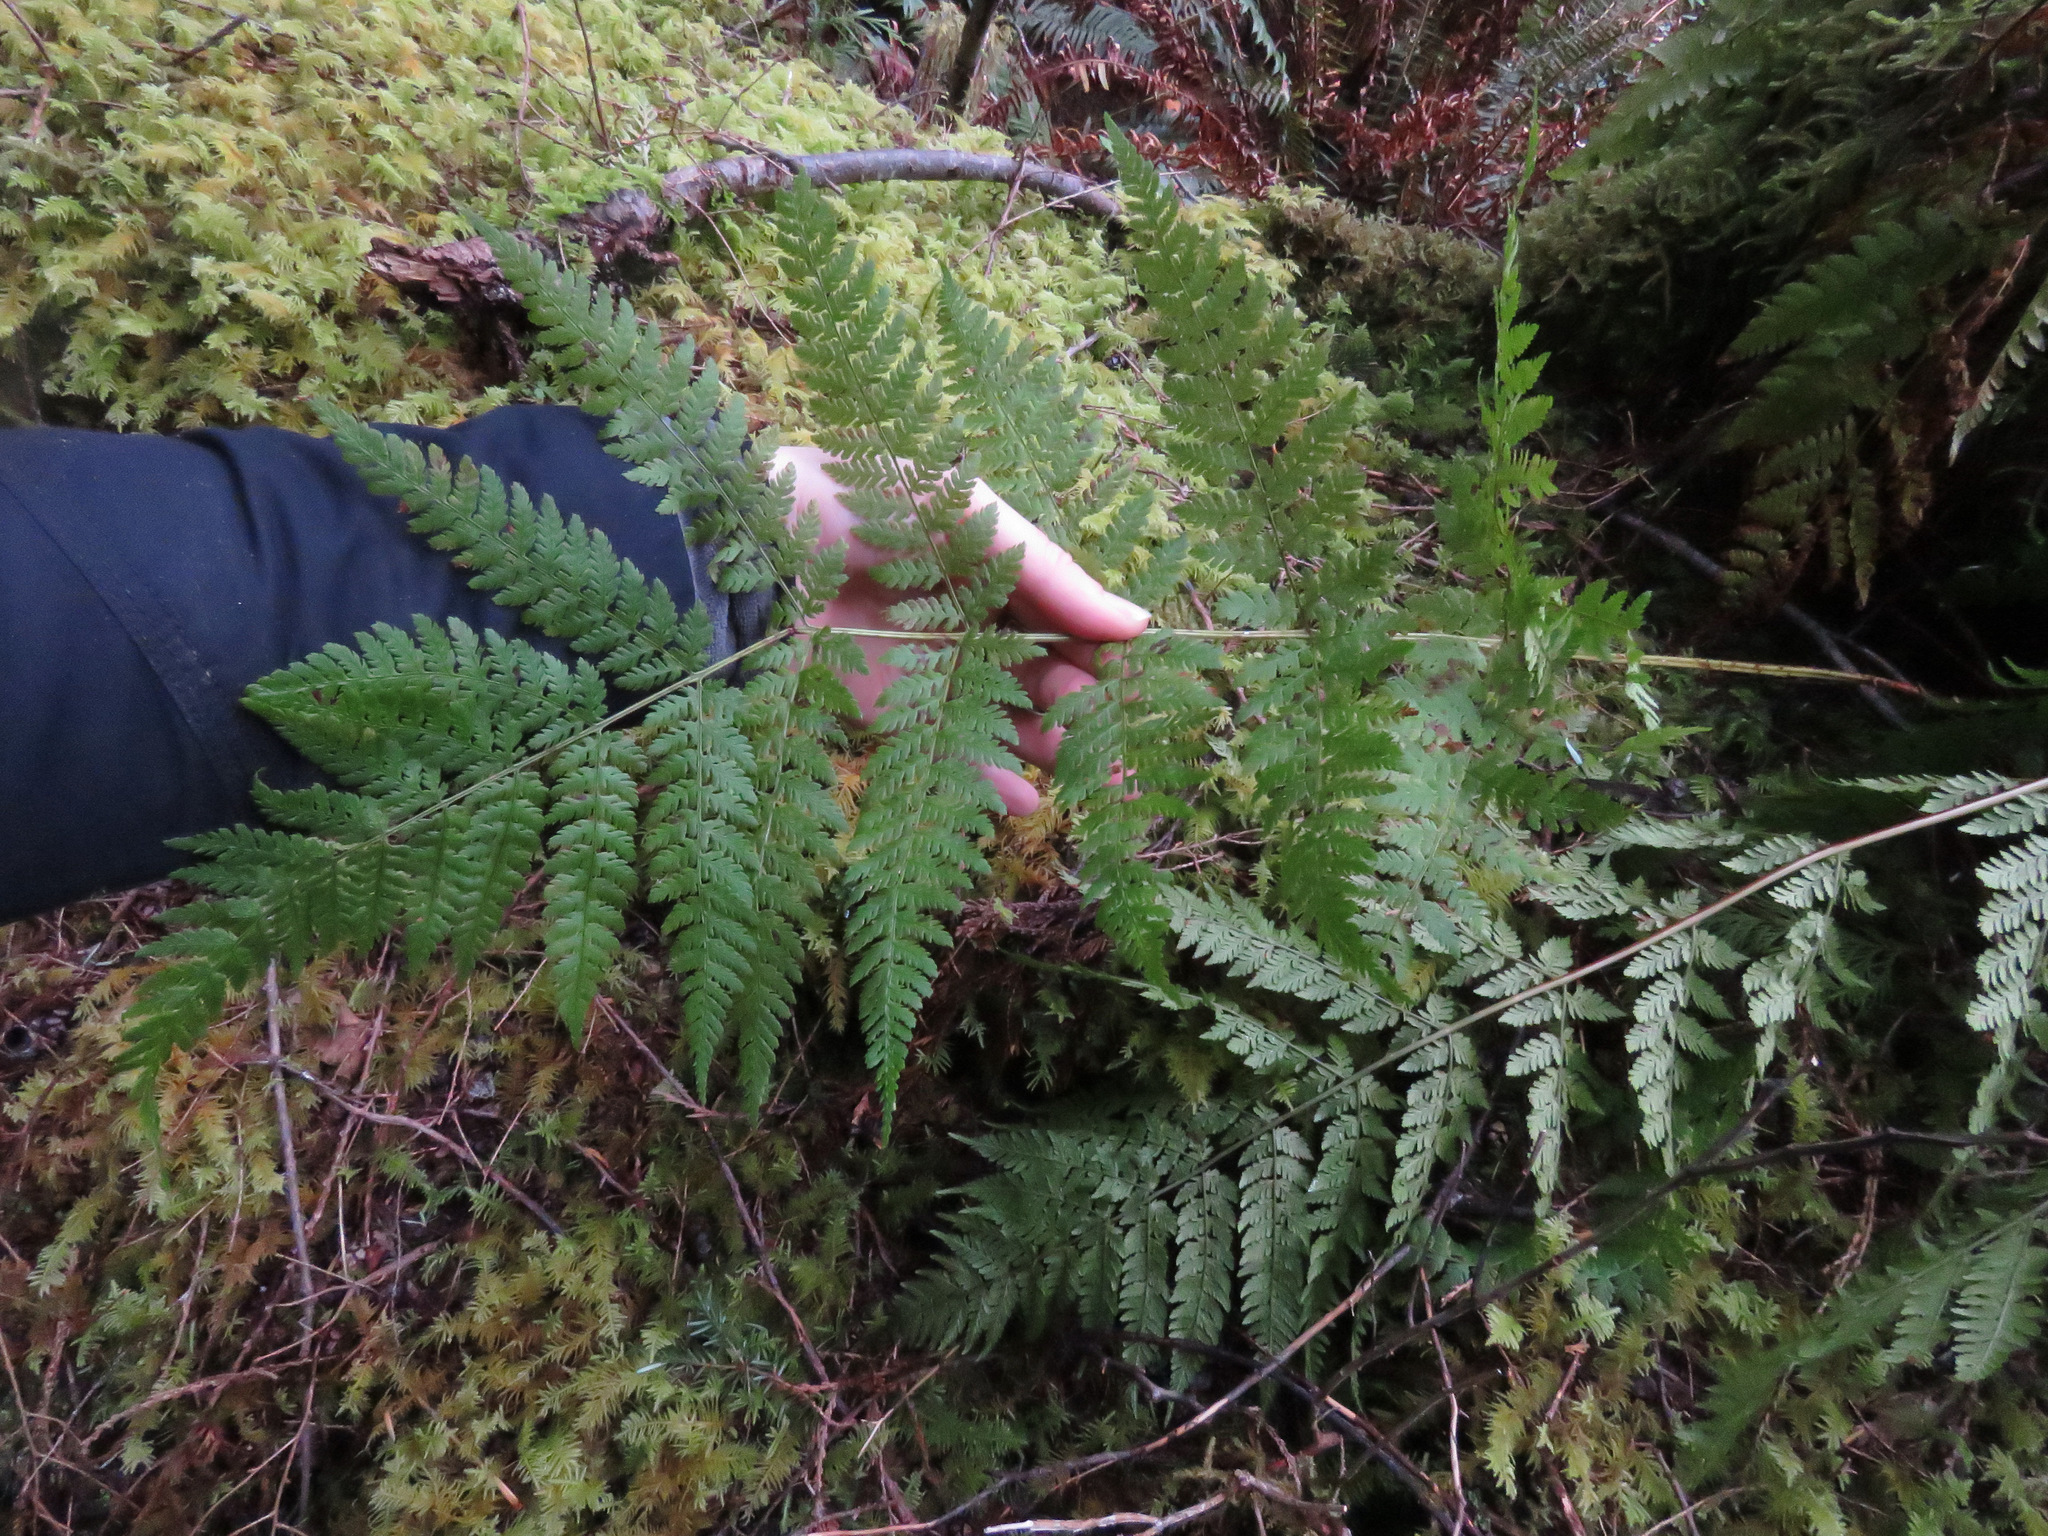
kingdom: Plantae
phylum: Tracheophyta
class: Polypodiopsida
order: Polypodiales
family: Dryopteridaceae
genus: Dryopteris
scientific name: Dryopteris expansa
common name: Northern buckler fern
